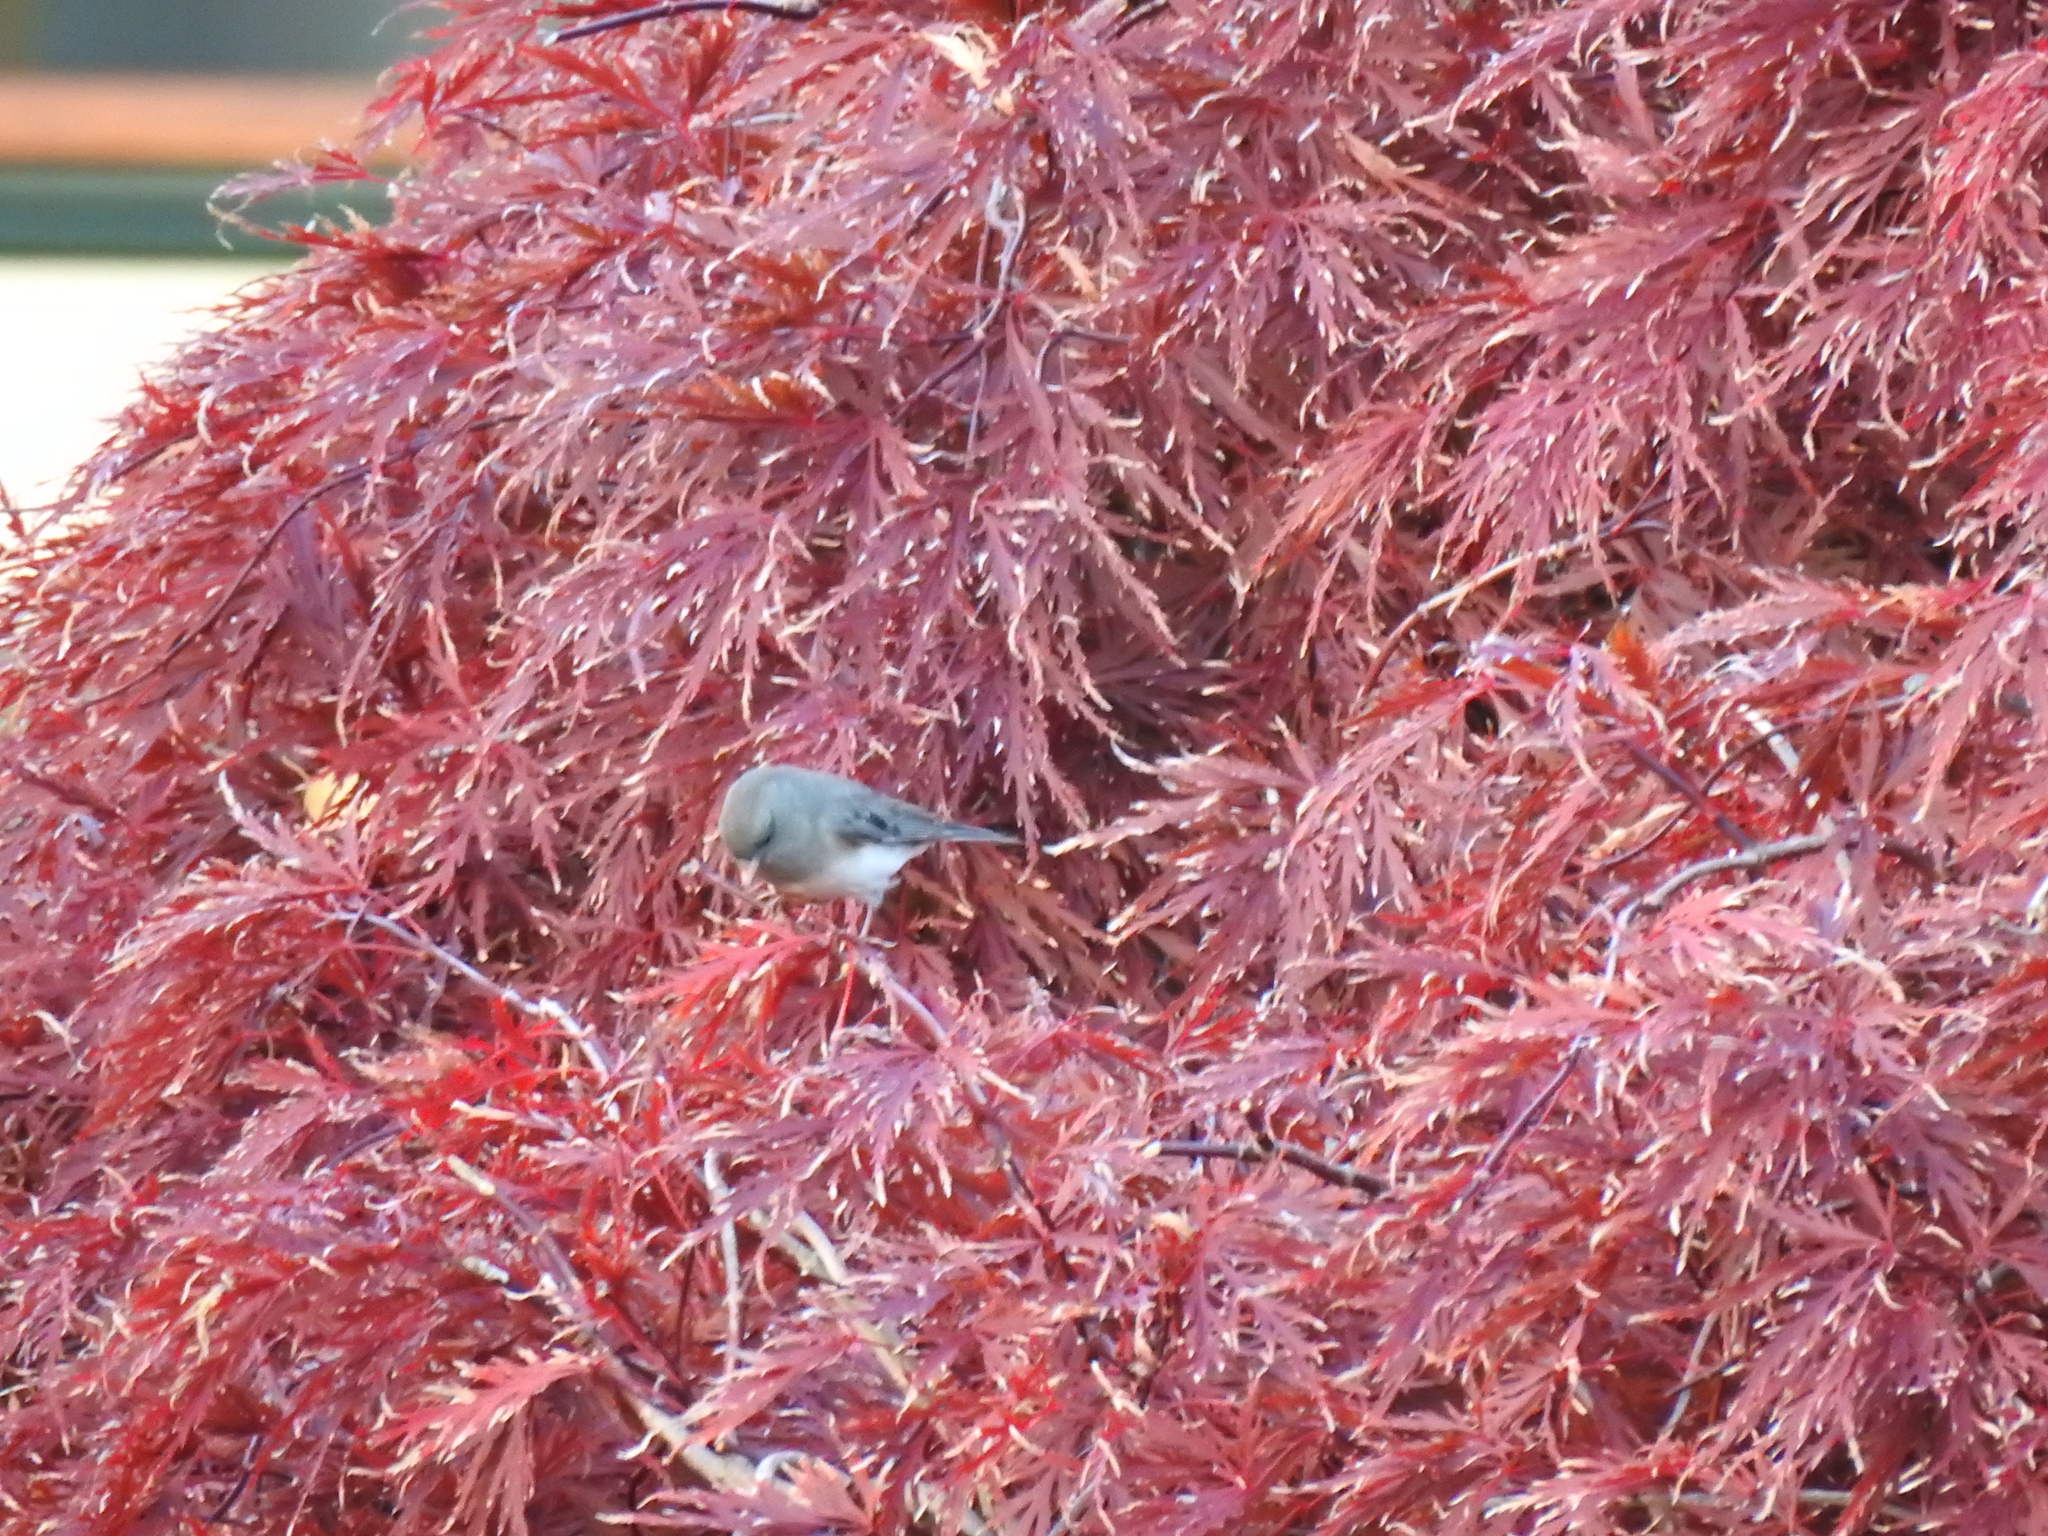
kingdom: Animalia
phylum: Chordata
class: Aves
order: Passeriformes
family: Passerellidae
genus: Junco
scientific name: Junco hyemalis
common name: Dark-eyed junco
